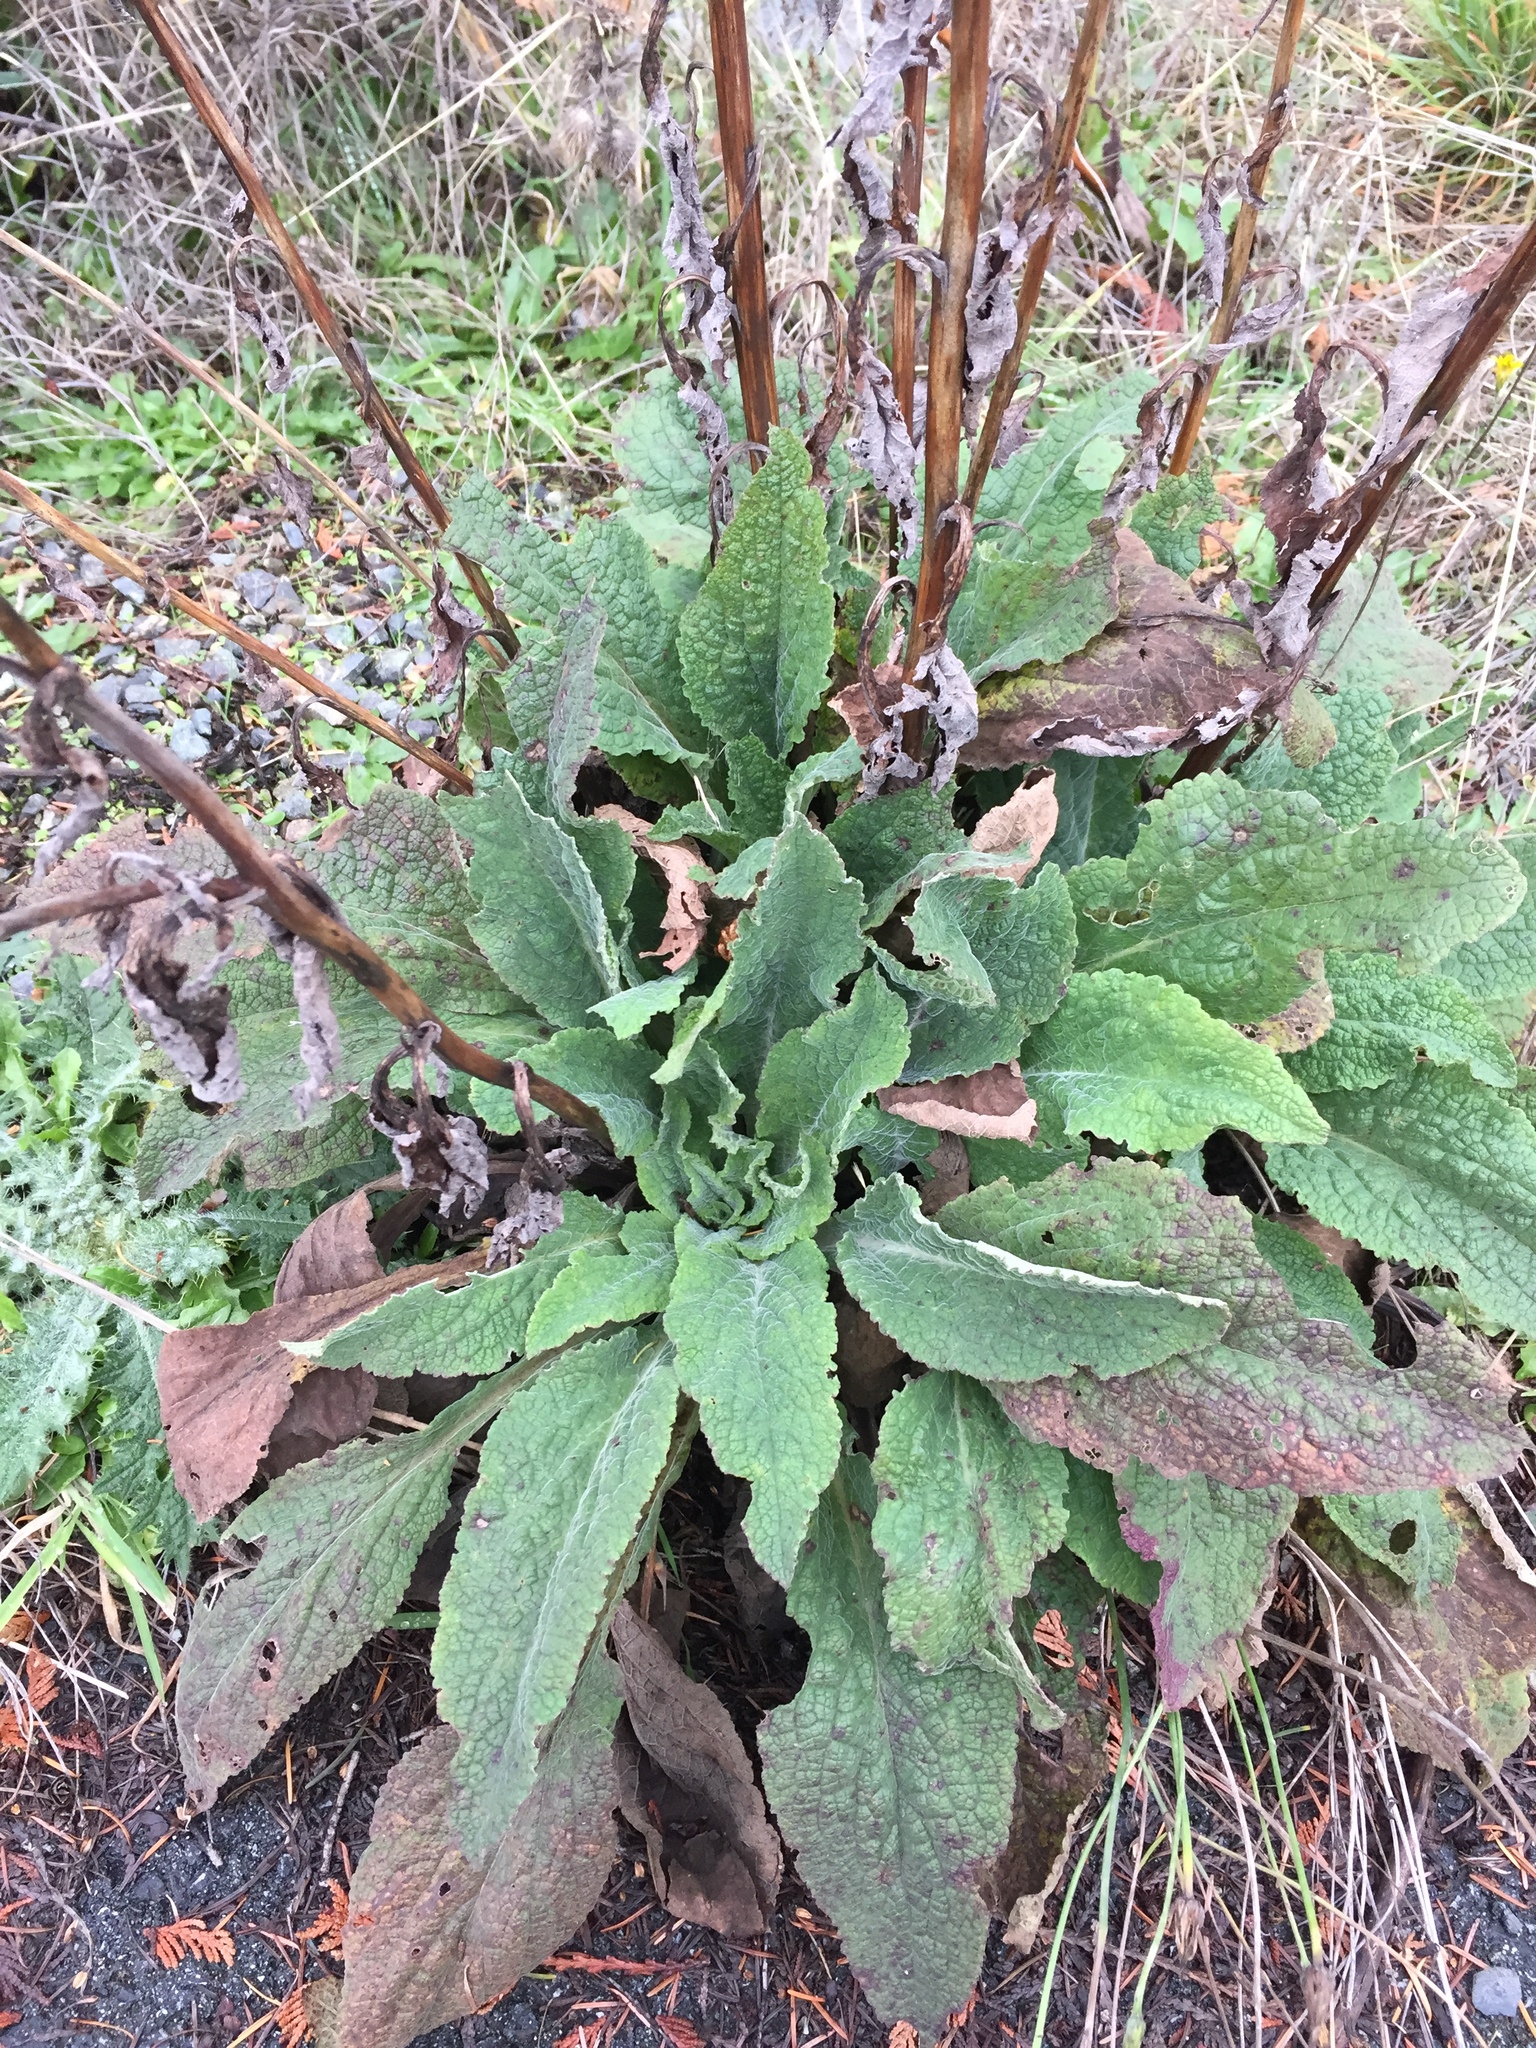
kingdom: Plantae
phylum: Tracheophyta
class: Magnoliopsida
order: Lamiales
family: Plantaginaceae
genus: Digitalis
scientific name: Digitalis purpurea
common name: Foxglove
